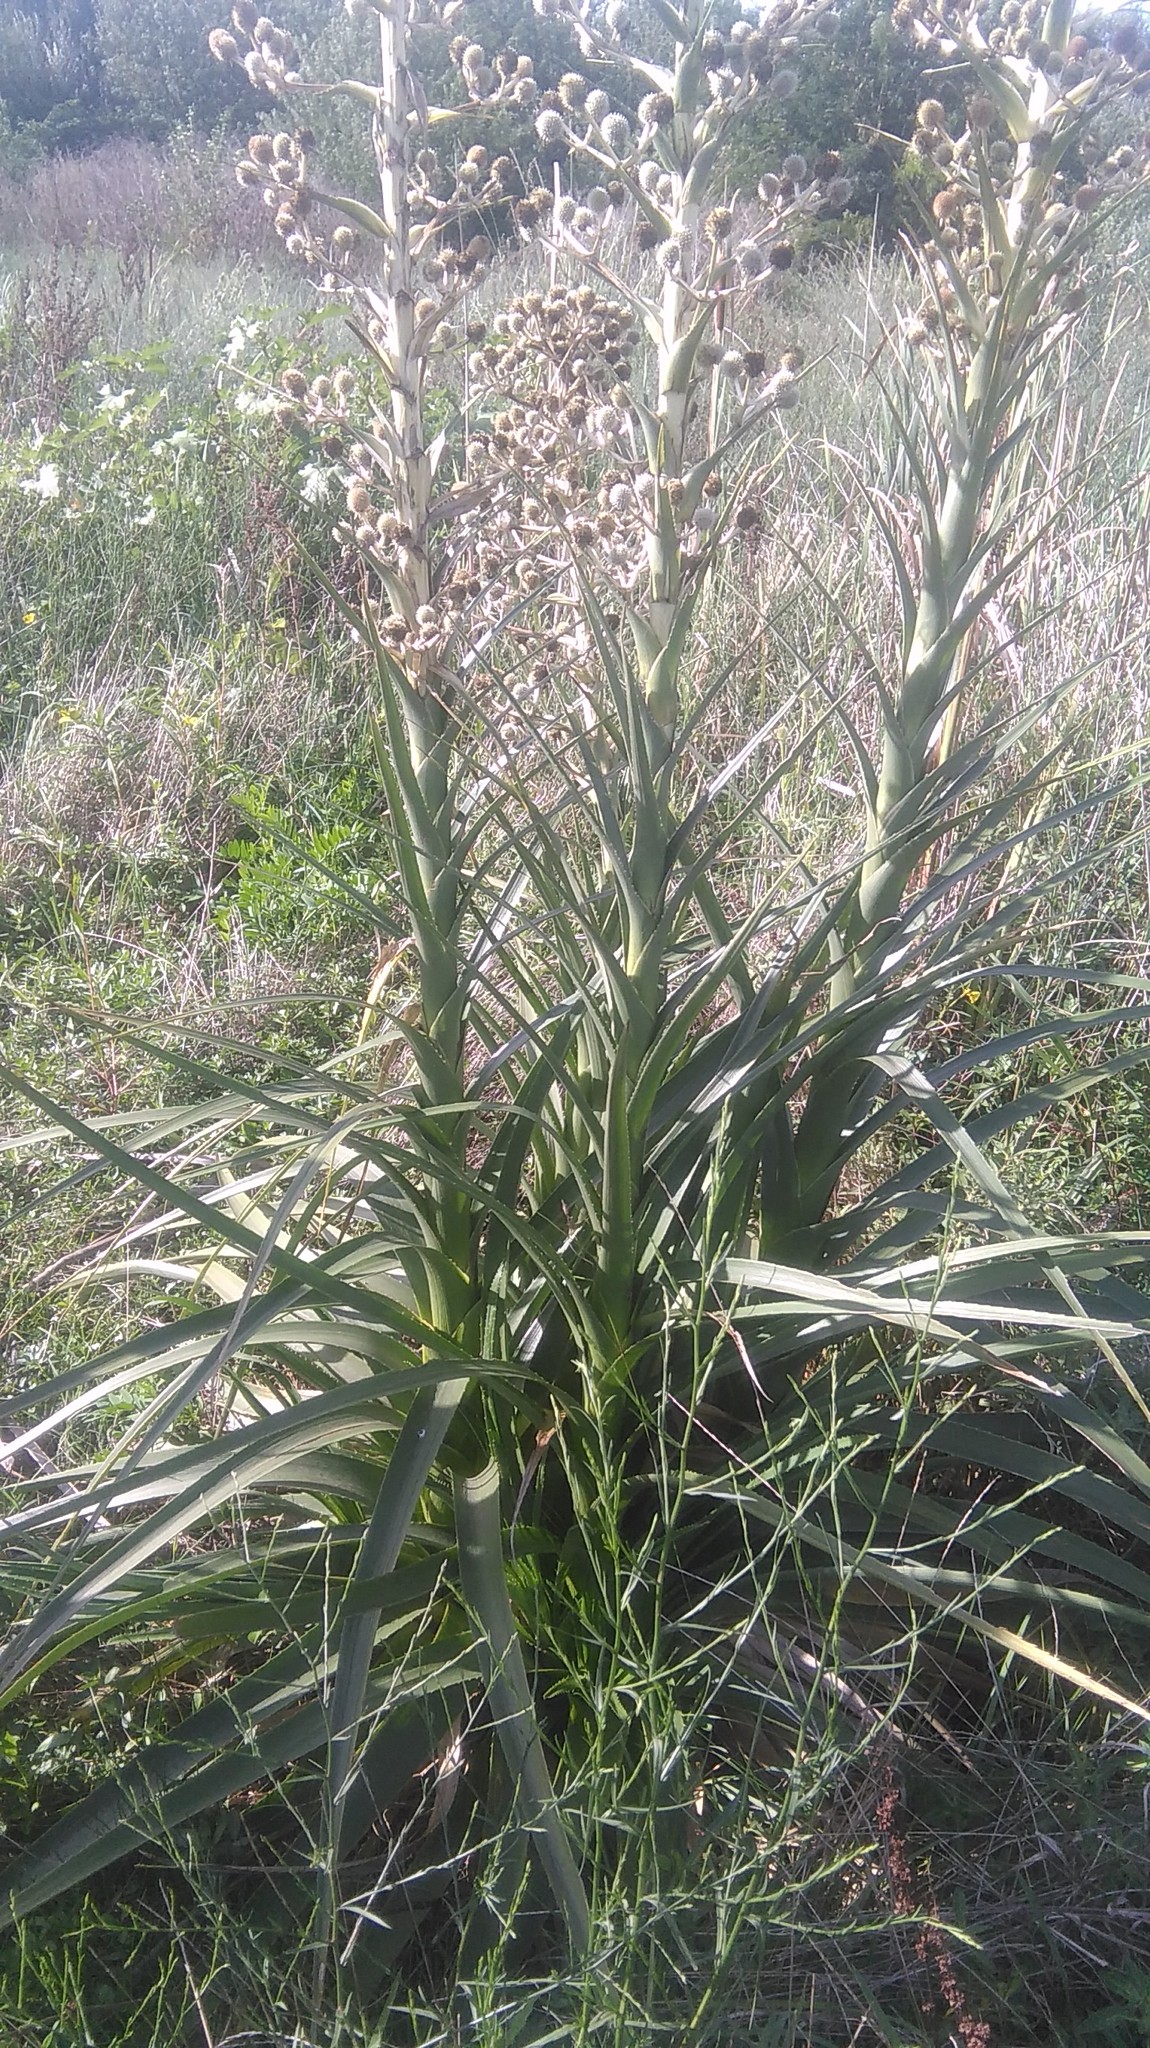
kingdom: Plantae
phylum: Tracheophyta
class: Magnoliopsida
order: Apiales
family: Apiaceae
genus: Eryngium
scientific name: Eryngium horridum
